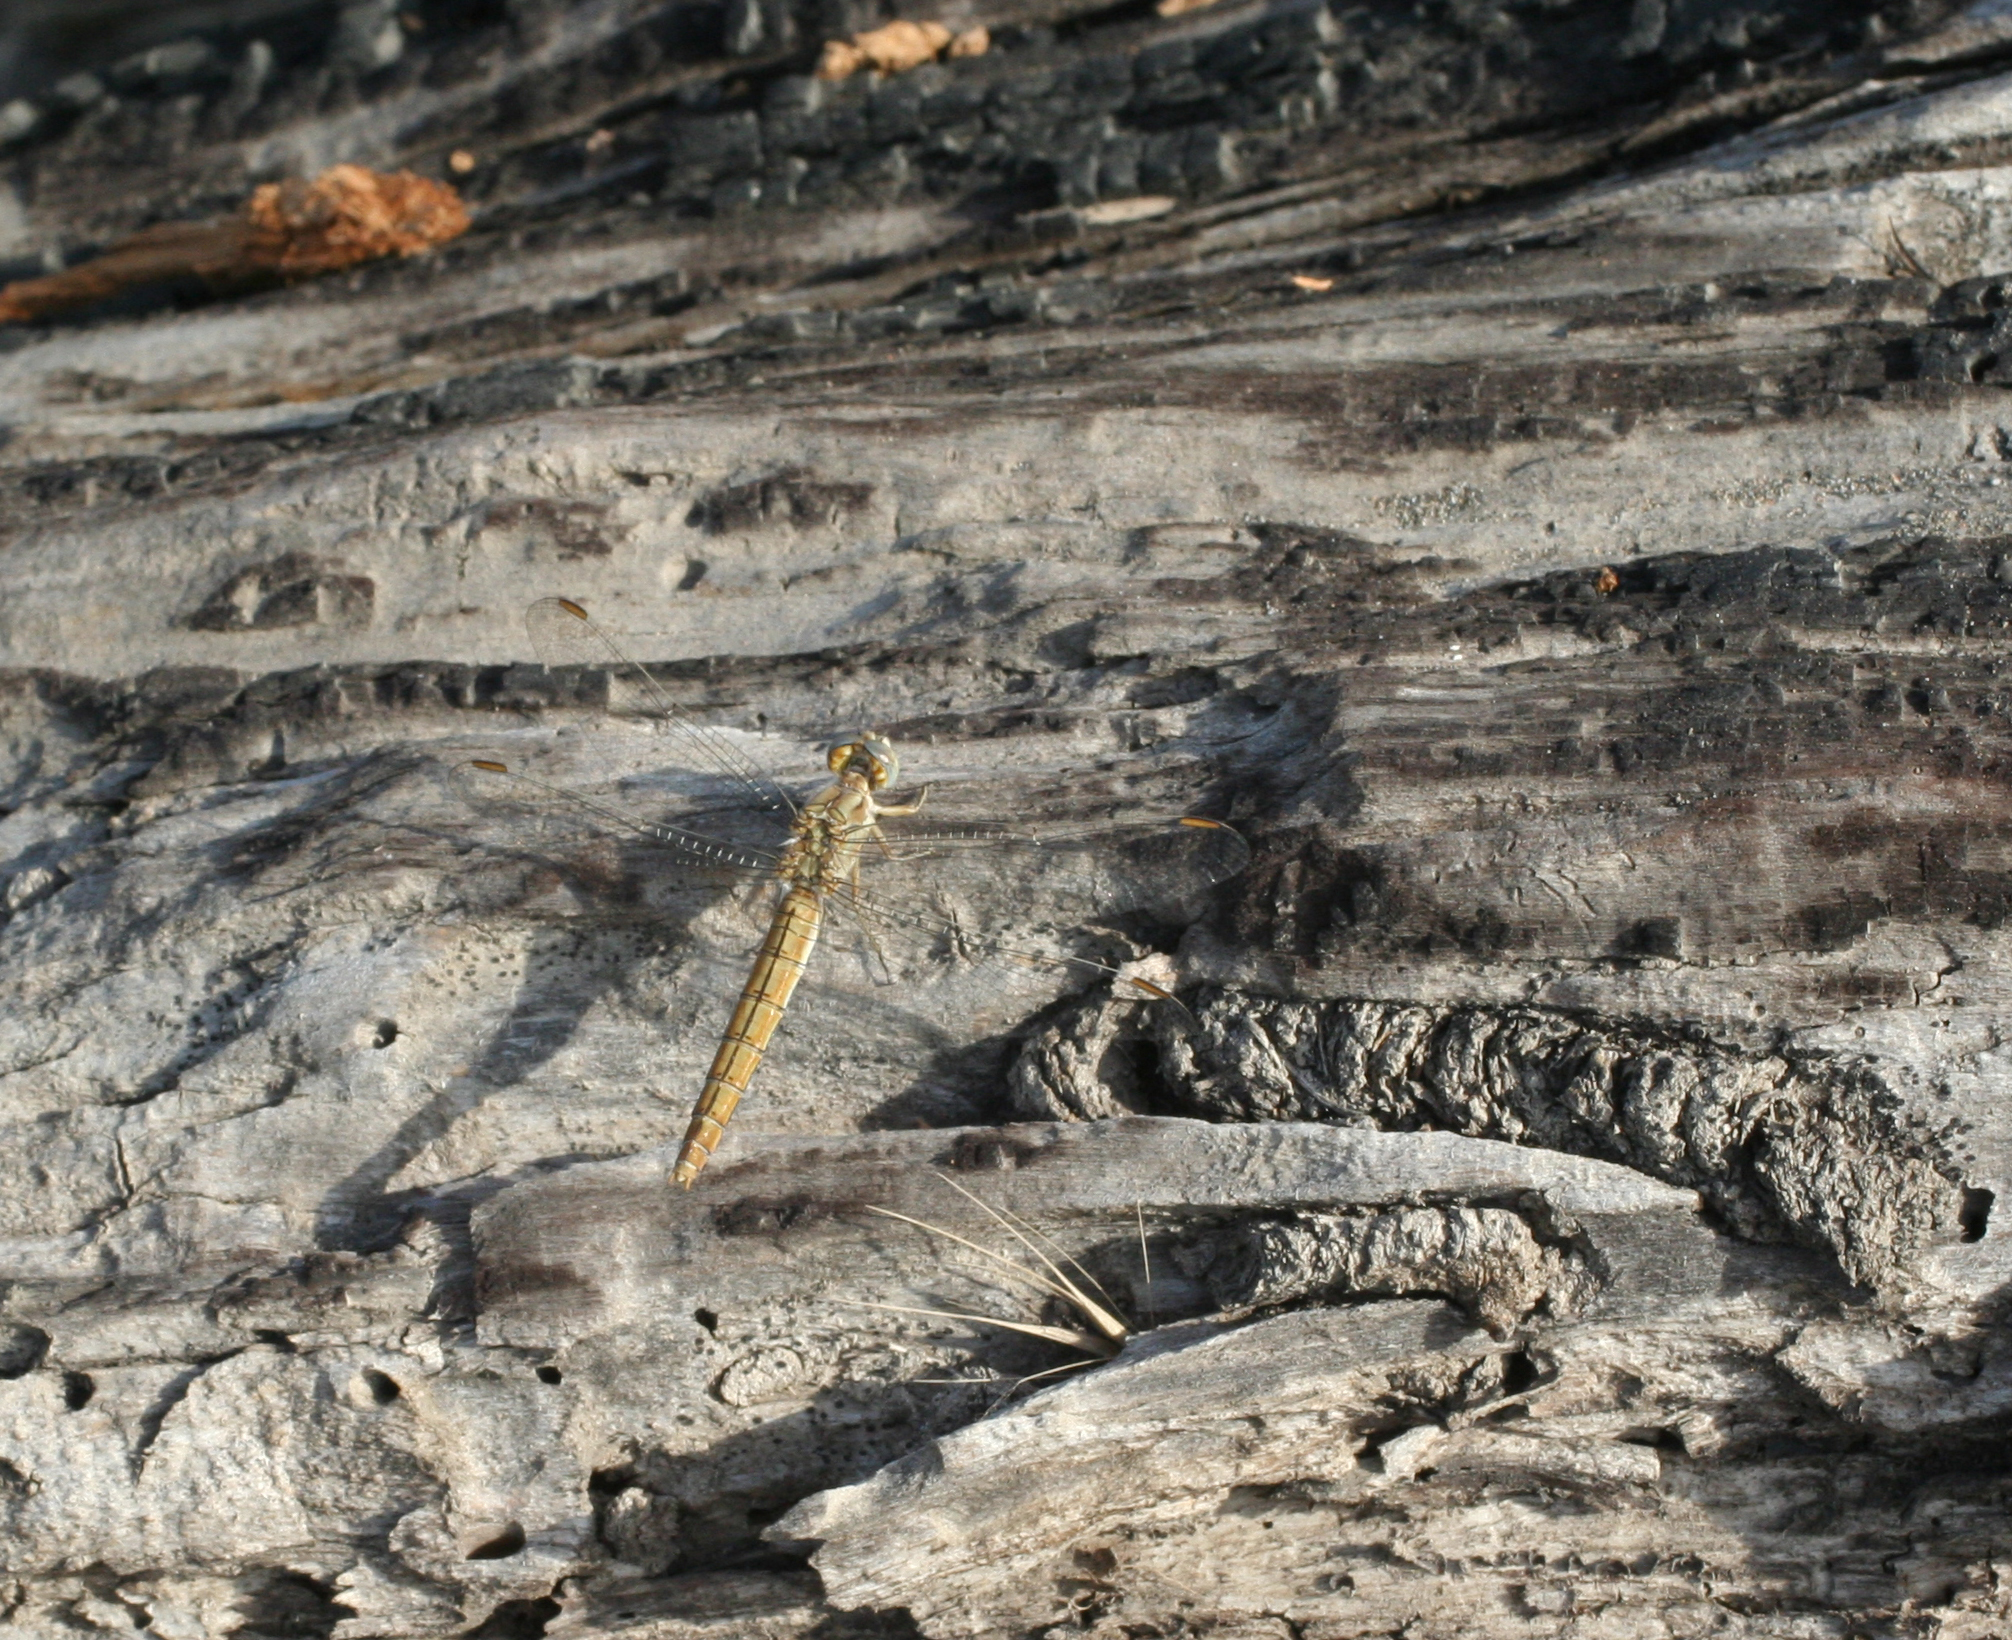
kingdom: Animalia
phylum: Arthropoda
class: Insecta
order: Odonata
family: Libellulidae
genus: Orthetrum
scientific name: Orthetrum brunneum
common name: Southern skimmer
